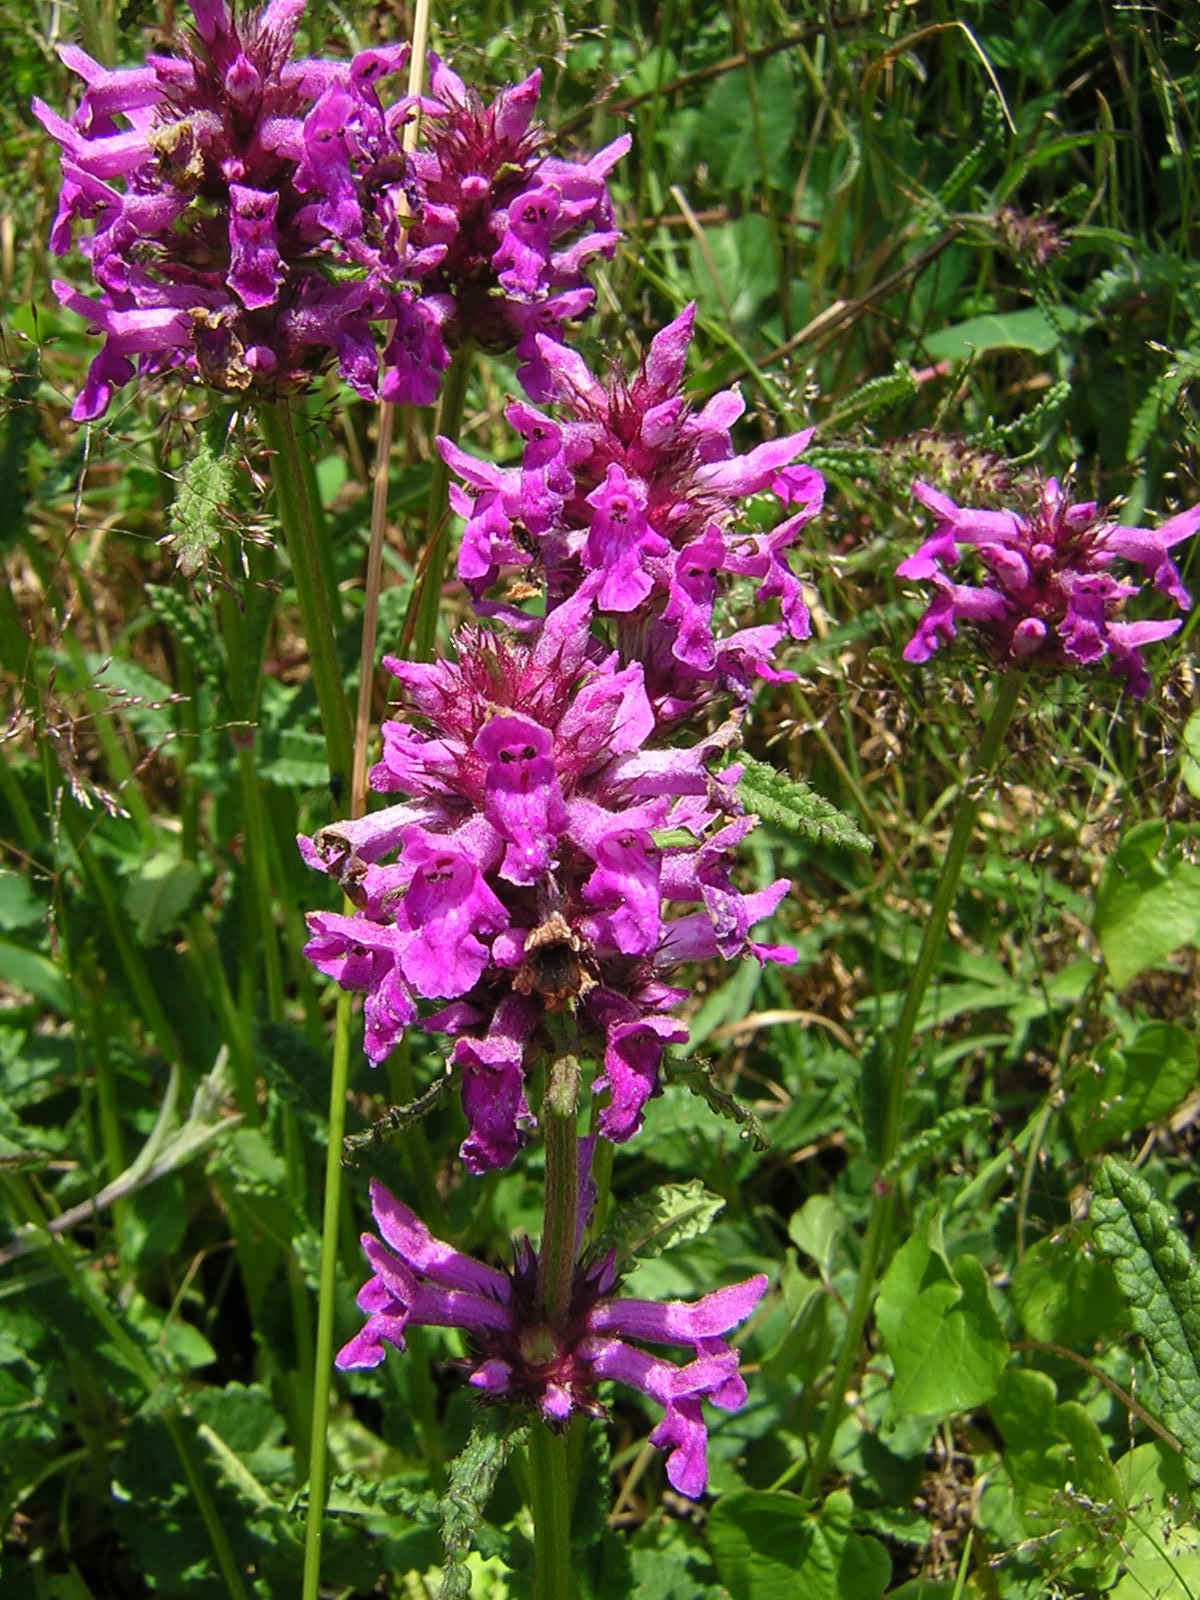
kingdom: Plantae
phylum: Tracheophyta
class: Magnoliopsida
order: Lamiales
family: Lamiaceae
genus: Betonica
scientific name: Betonica officinalis
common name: Bishop's-wort
